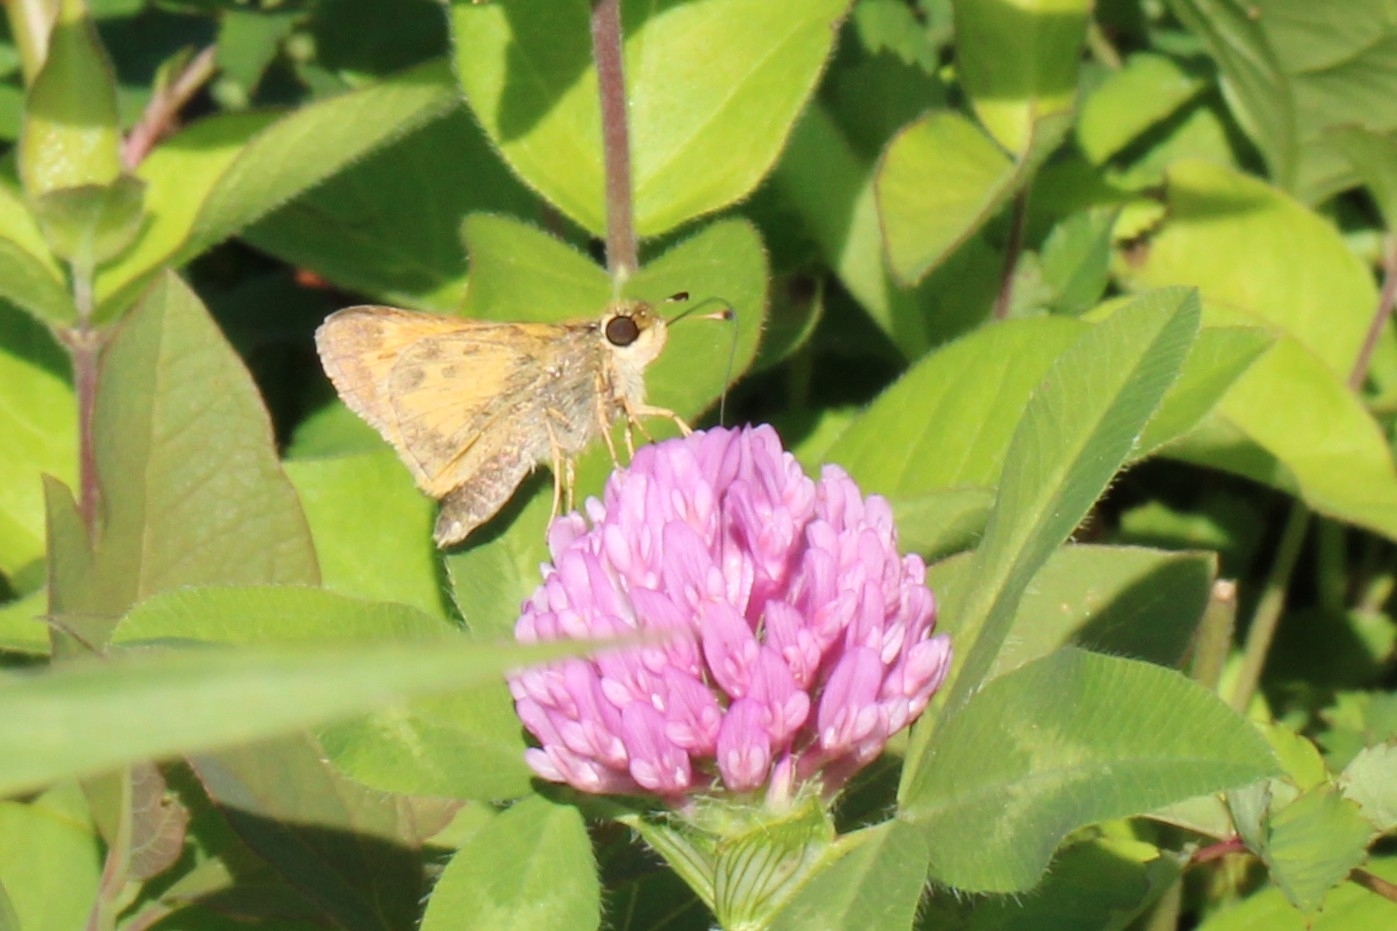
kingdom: Animalia
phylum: Arthropoda
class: Insecta
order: Lepidoptera
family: Hesperiidae
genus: Atalopedes
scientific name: Atalopedes
